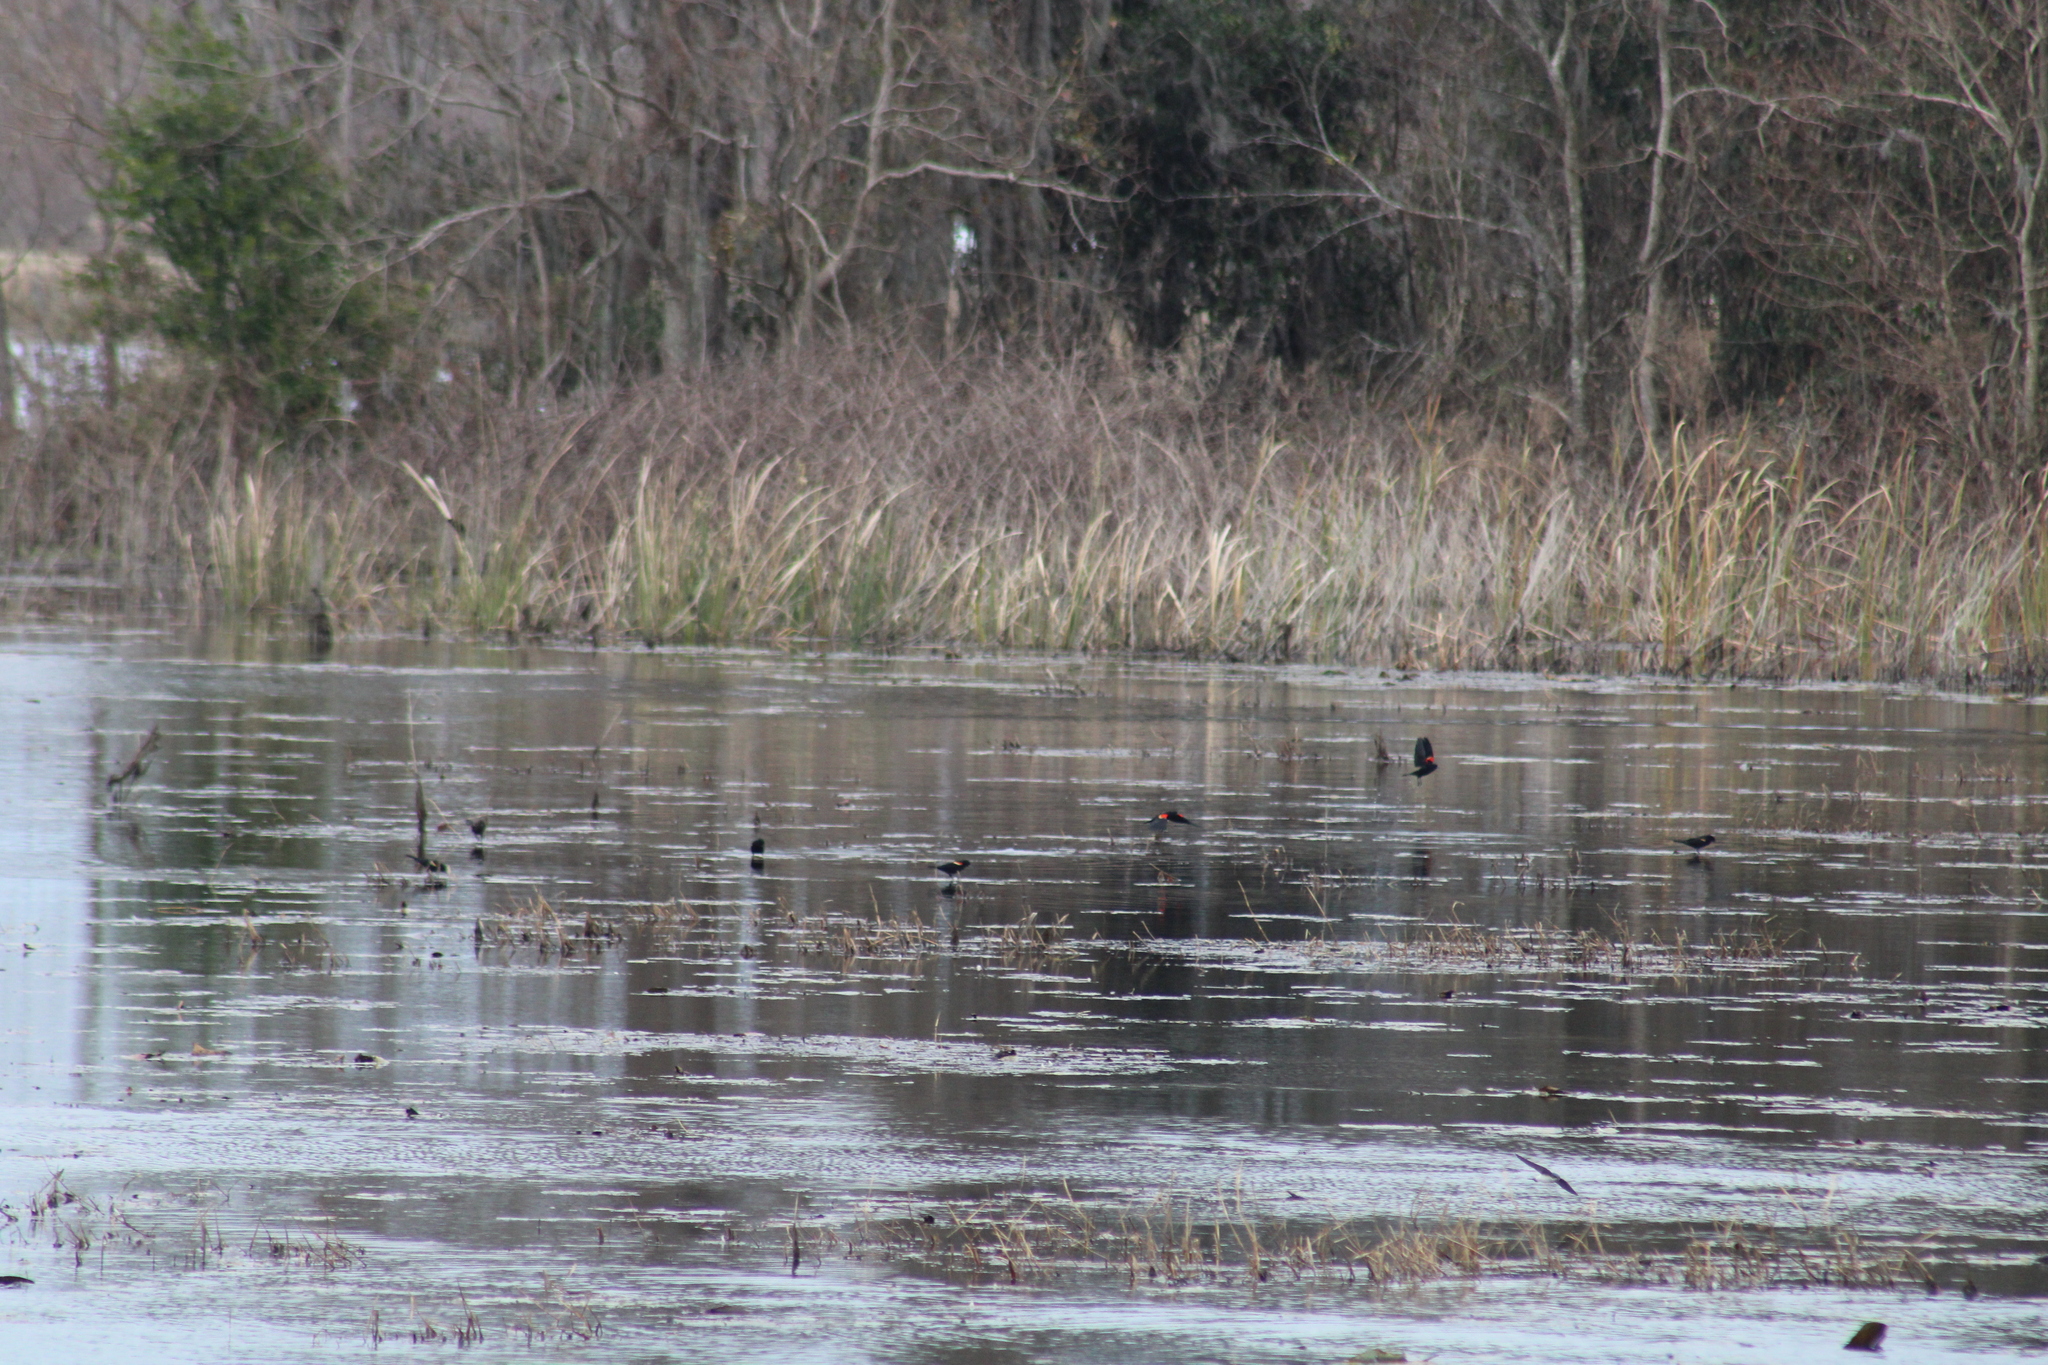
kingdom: Animalia
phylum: Chordata
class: Aves
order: Passeriformes
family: Icteridae
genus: Agelaius
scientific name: Agelaius phoeniceus
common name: Red-winged blackbird
